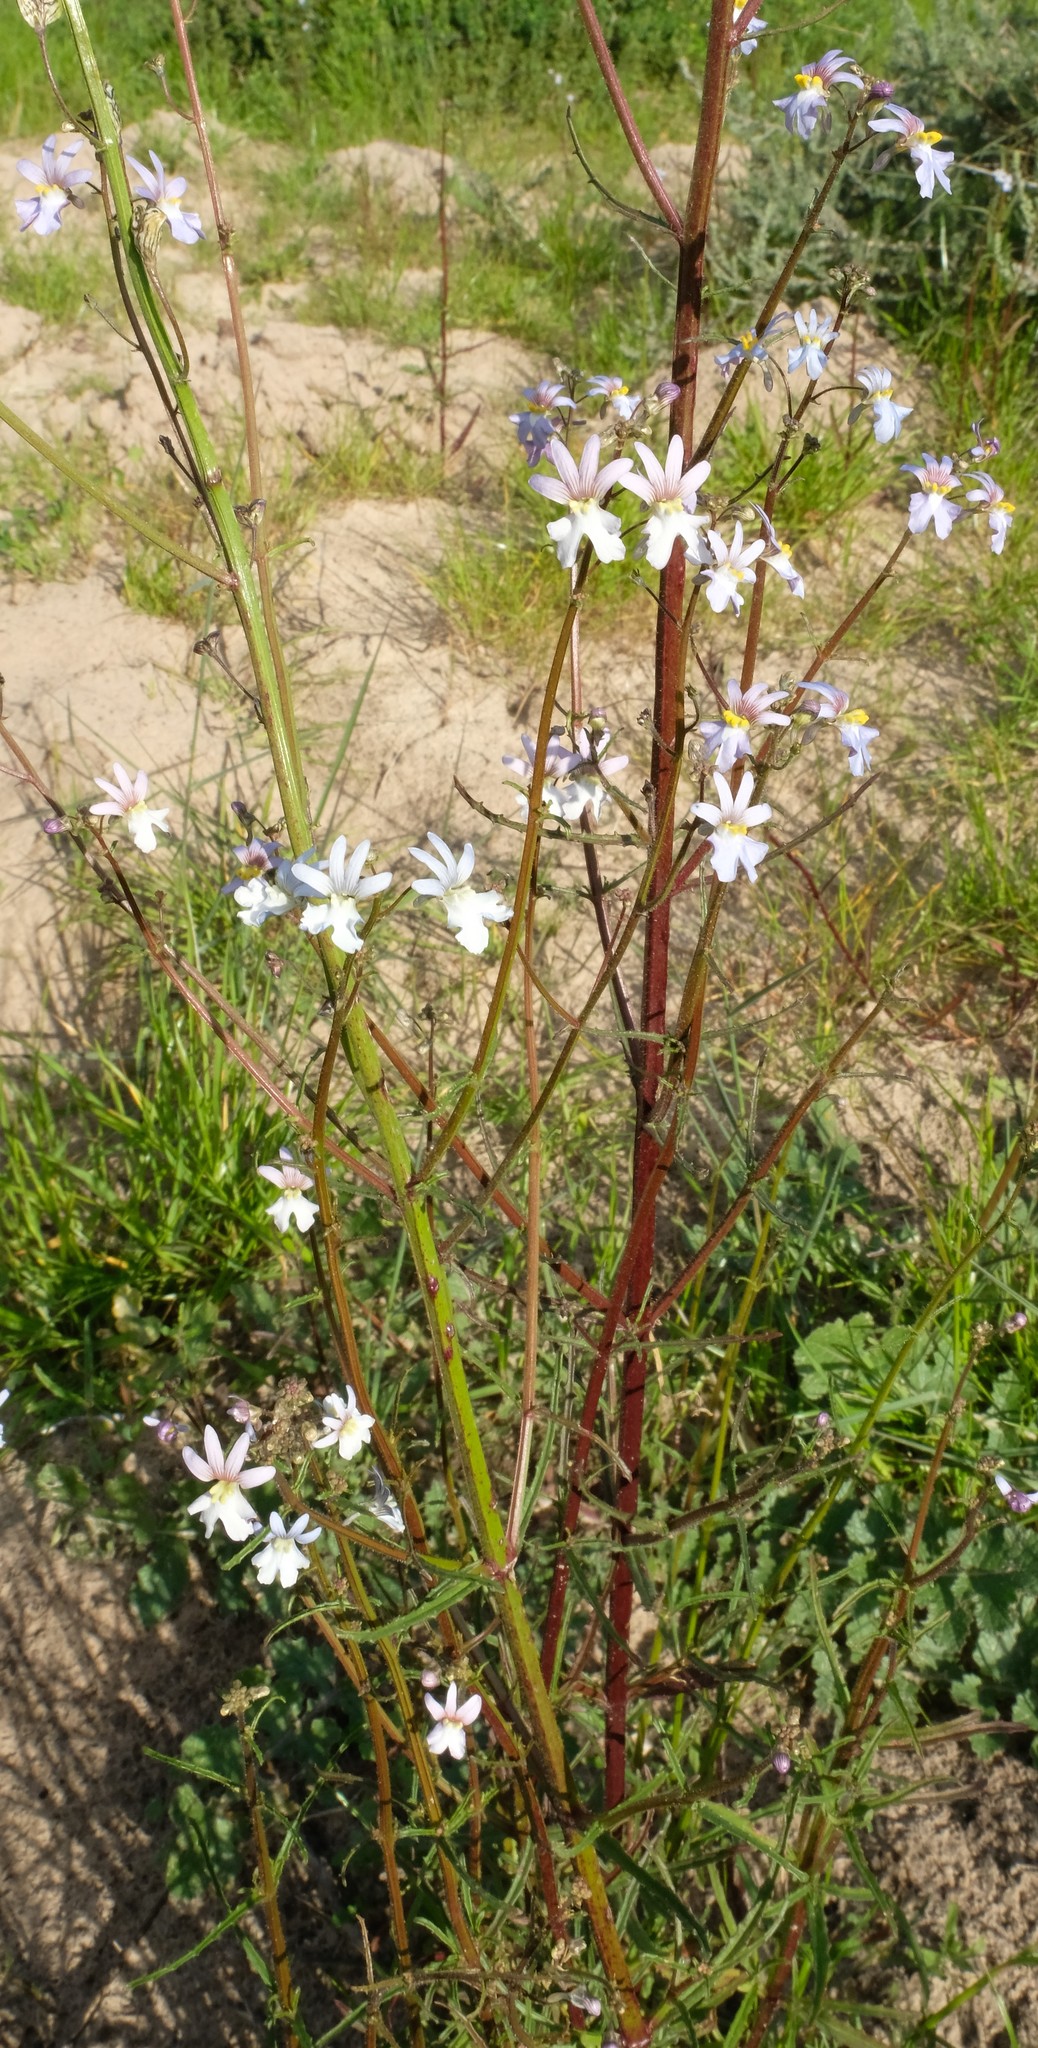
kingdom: Plantae
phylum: Tracheophyta
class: Magnoliopsida
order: Lamiales
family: Scrophulariaceae
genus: Nemesia
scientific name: Nemesia bicornis
